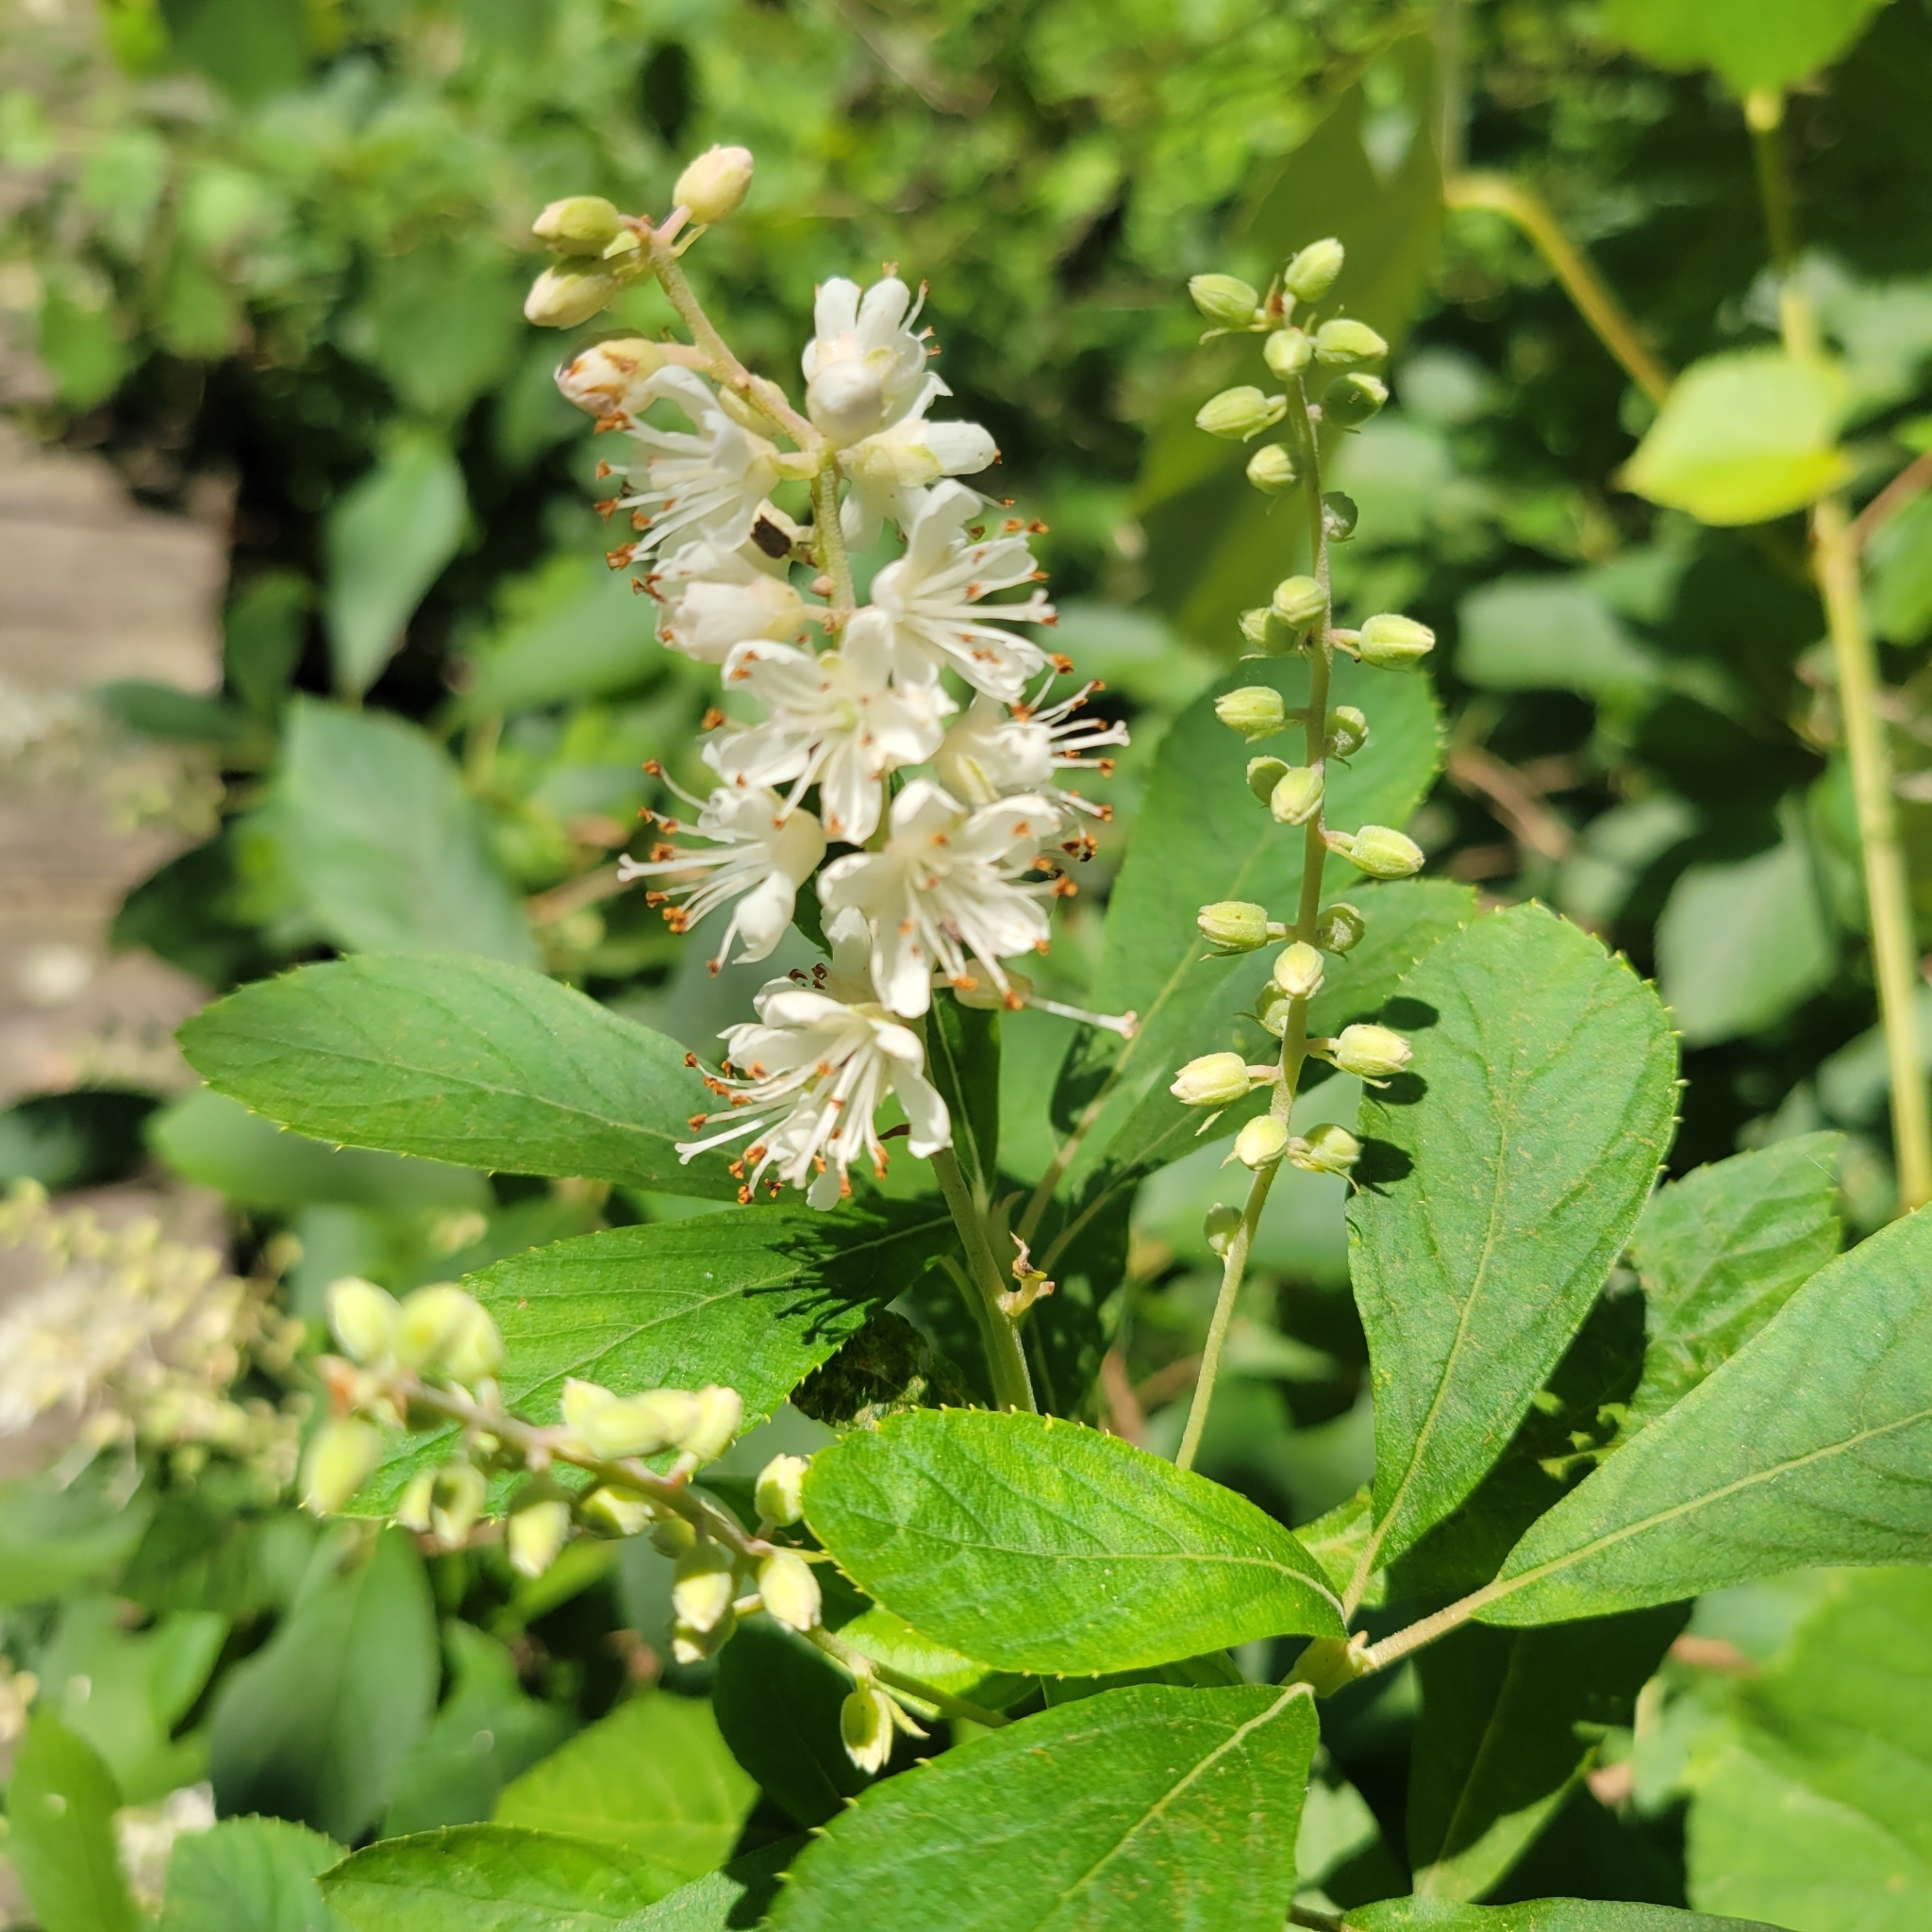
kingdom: Plantae
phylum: Tracheophyta
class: Magnoliopsida
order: Ericales
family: Clethraceae
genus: Clethra
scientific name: Clethra alnifolia
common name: Sweet pepperbush
